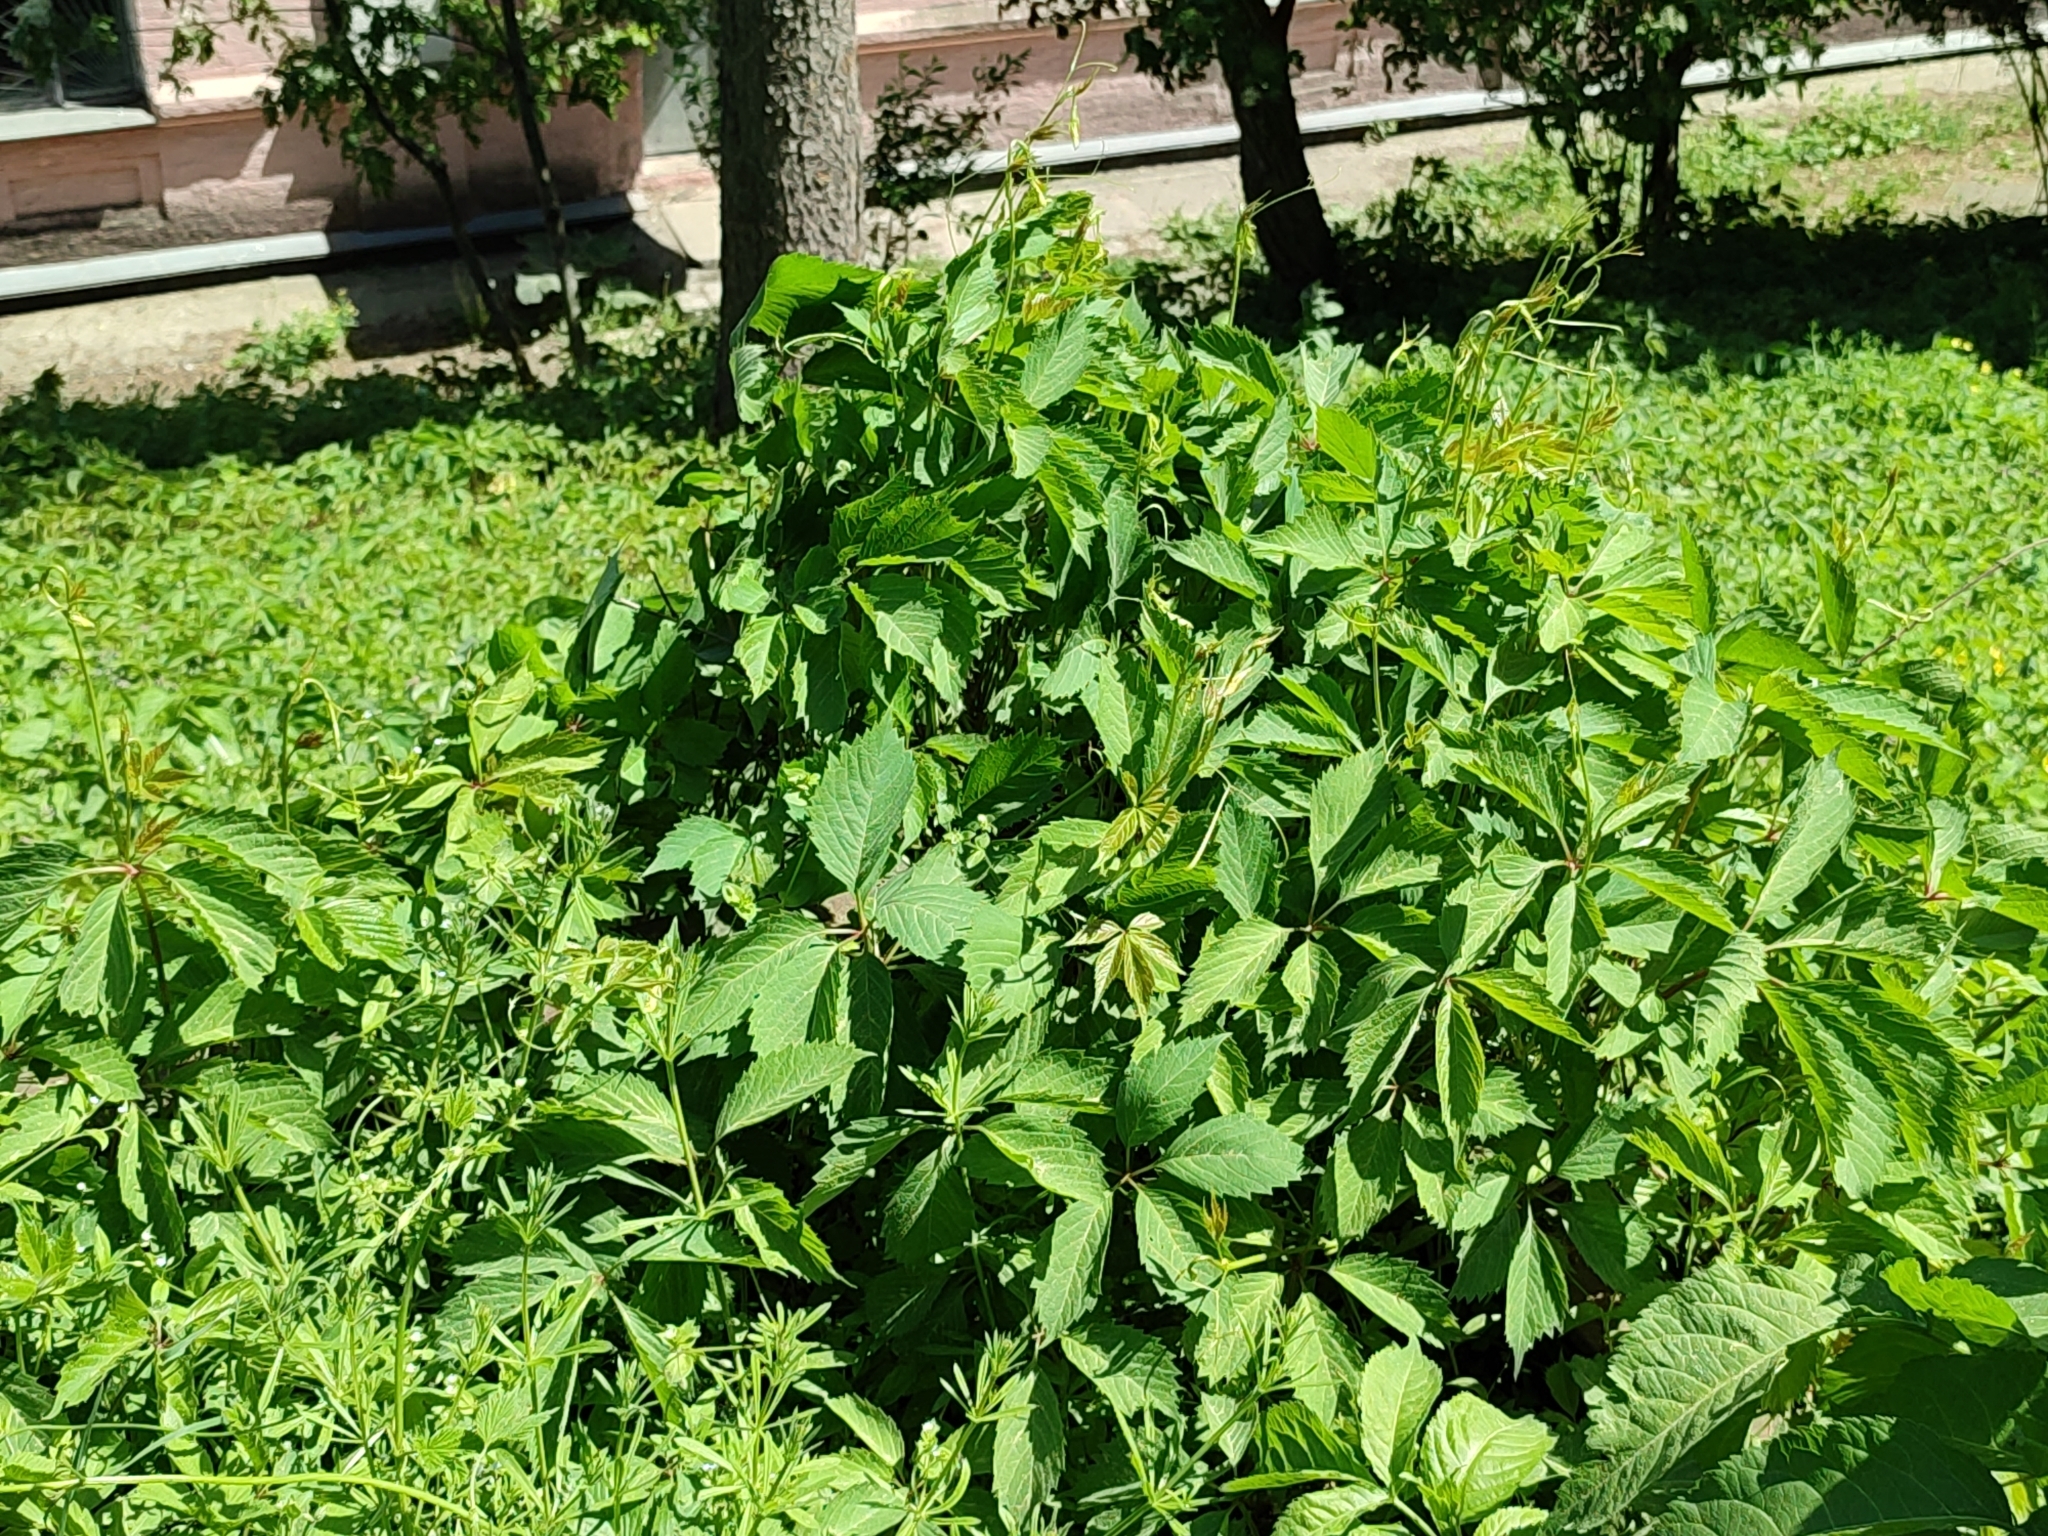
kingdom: Plantae
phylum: Tracheophyta
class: Magnoliopsida
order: Vitales
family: Vitaceae
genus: Parthenocissus
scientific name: Parthenocissus inserta
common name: False virginia-creeper
